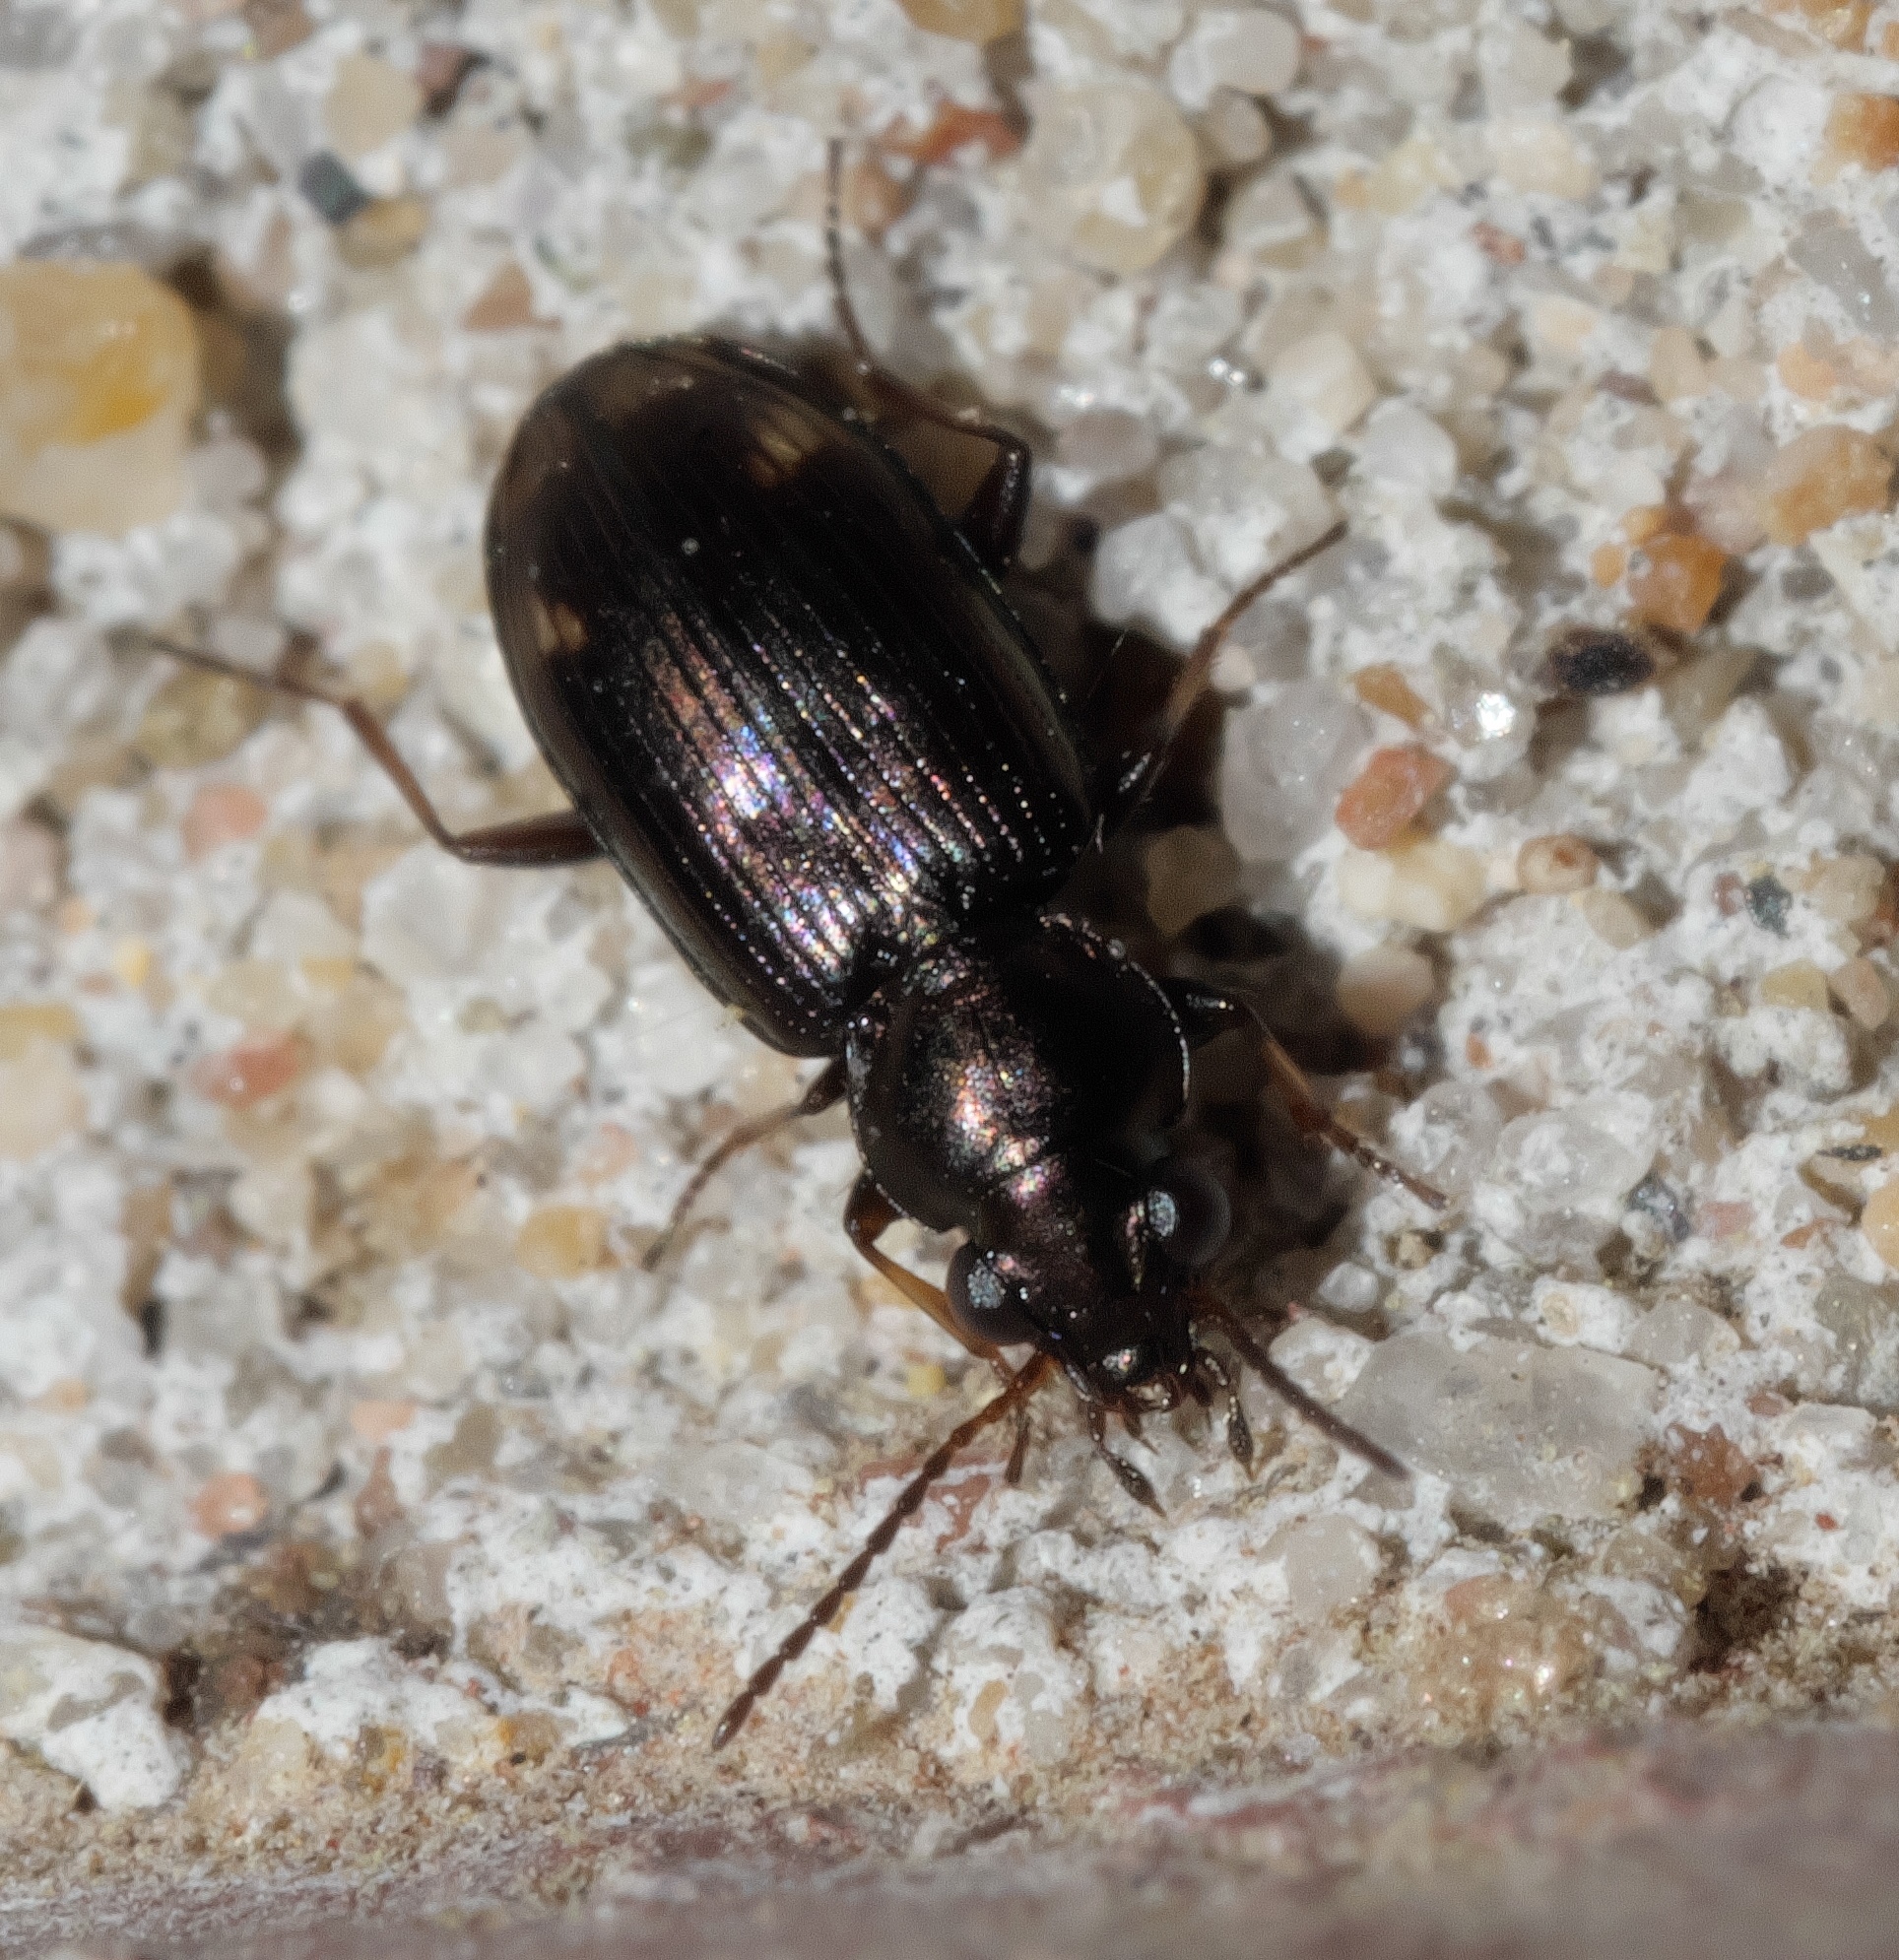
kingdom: Animalia
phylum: Arthropoda
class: Insecta
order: Coleoptera
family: Carabidae
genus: Bembidion
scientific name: Bembidion rapidum
